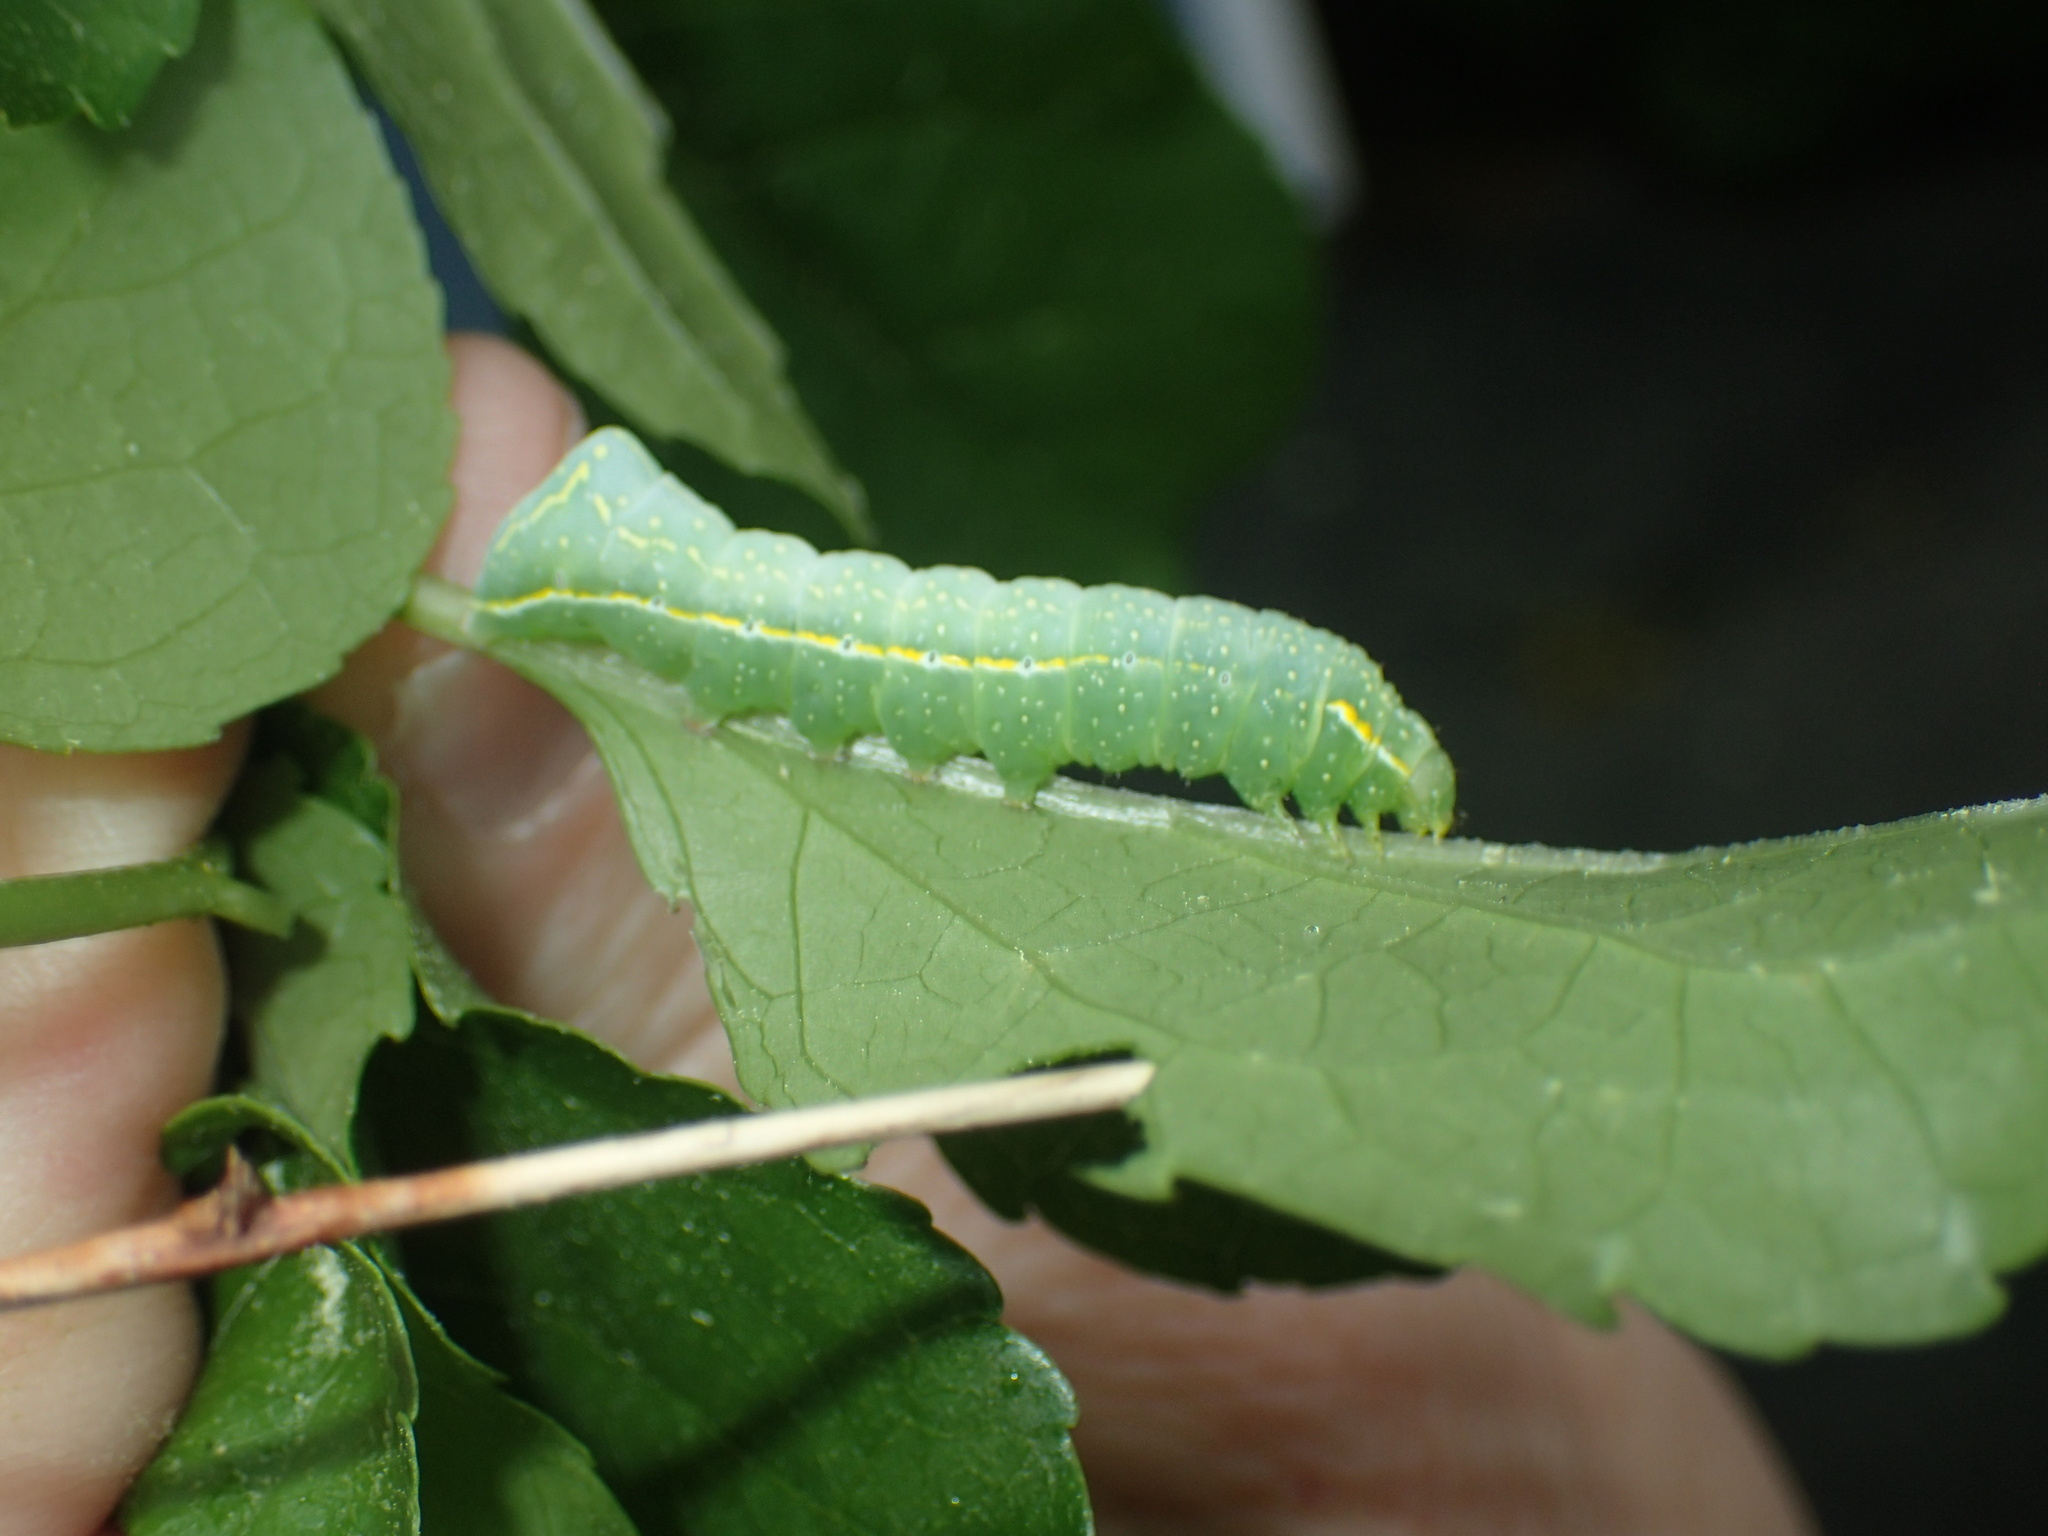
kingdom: Animalia
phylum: Arthropoda
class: Insecta
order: Lepidoptera
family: Noctuidae
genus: Amphipyra
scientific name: Amphipyra pyramidoides
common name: American copper underwing
